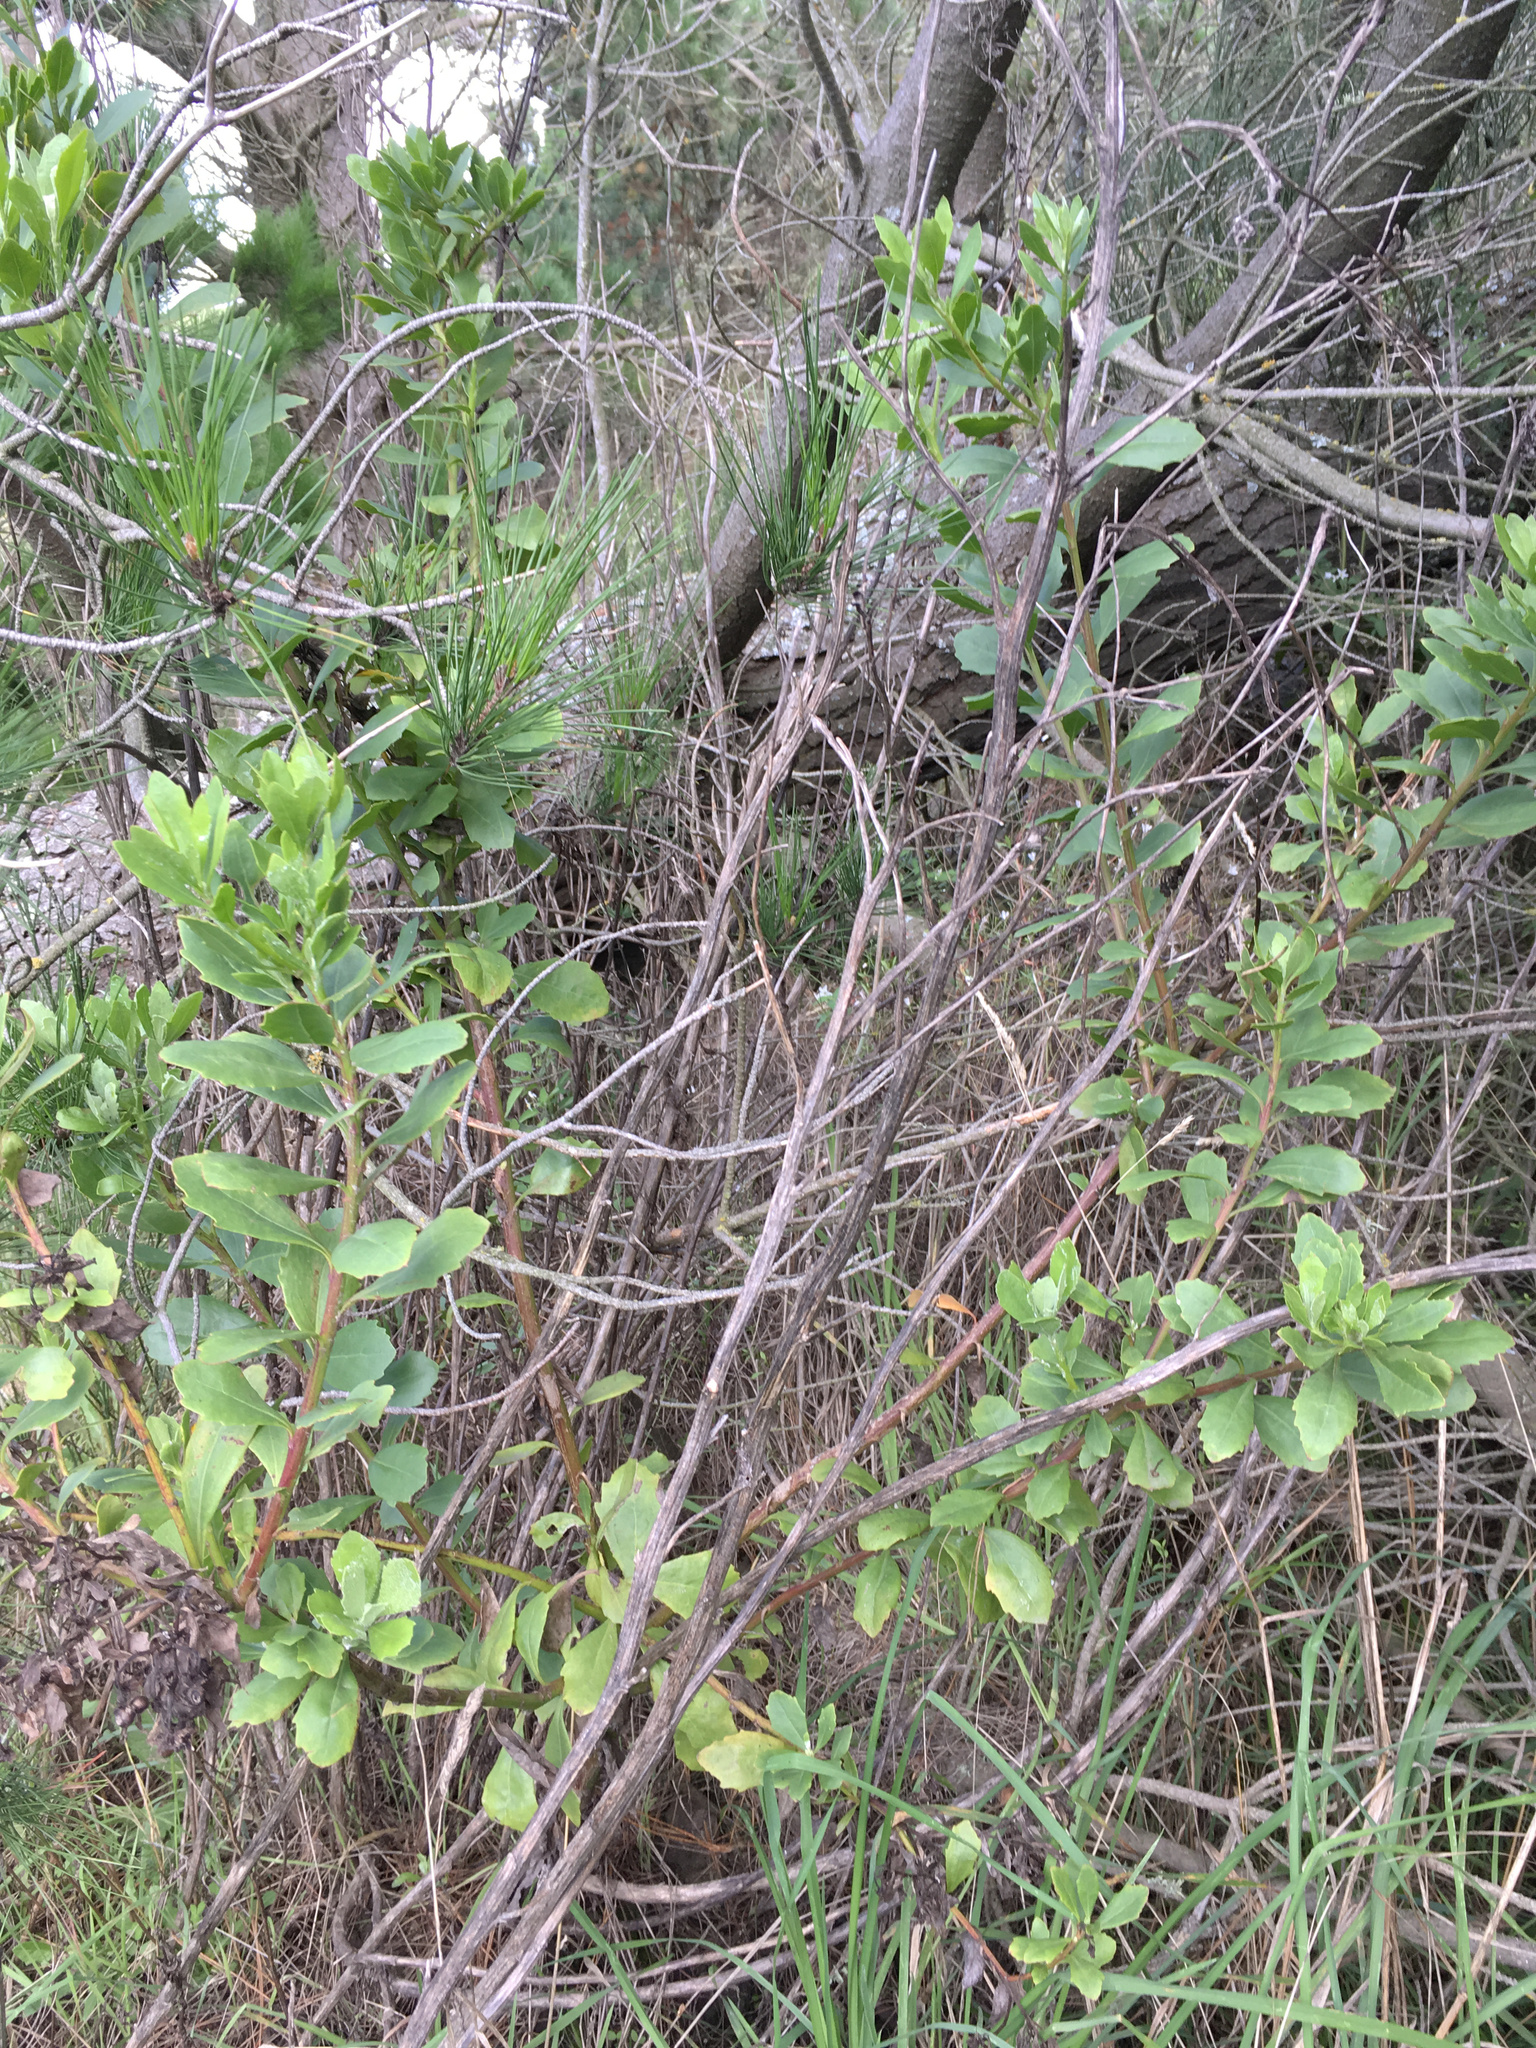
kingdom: Plantae
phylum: Tracheophyta
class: Magnoliopsida
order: Asterales
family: Asteraceae
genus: Osteospermum
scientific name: Osteospermum moniliferum
